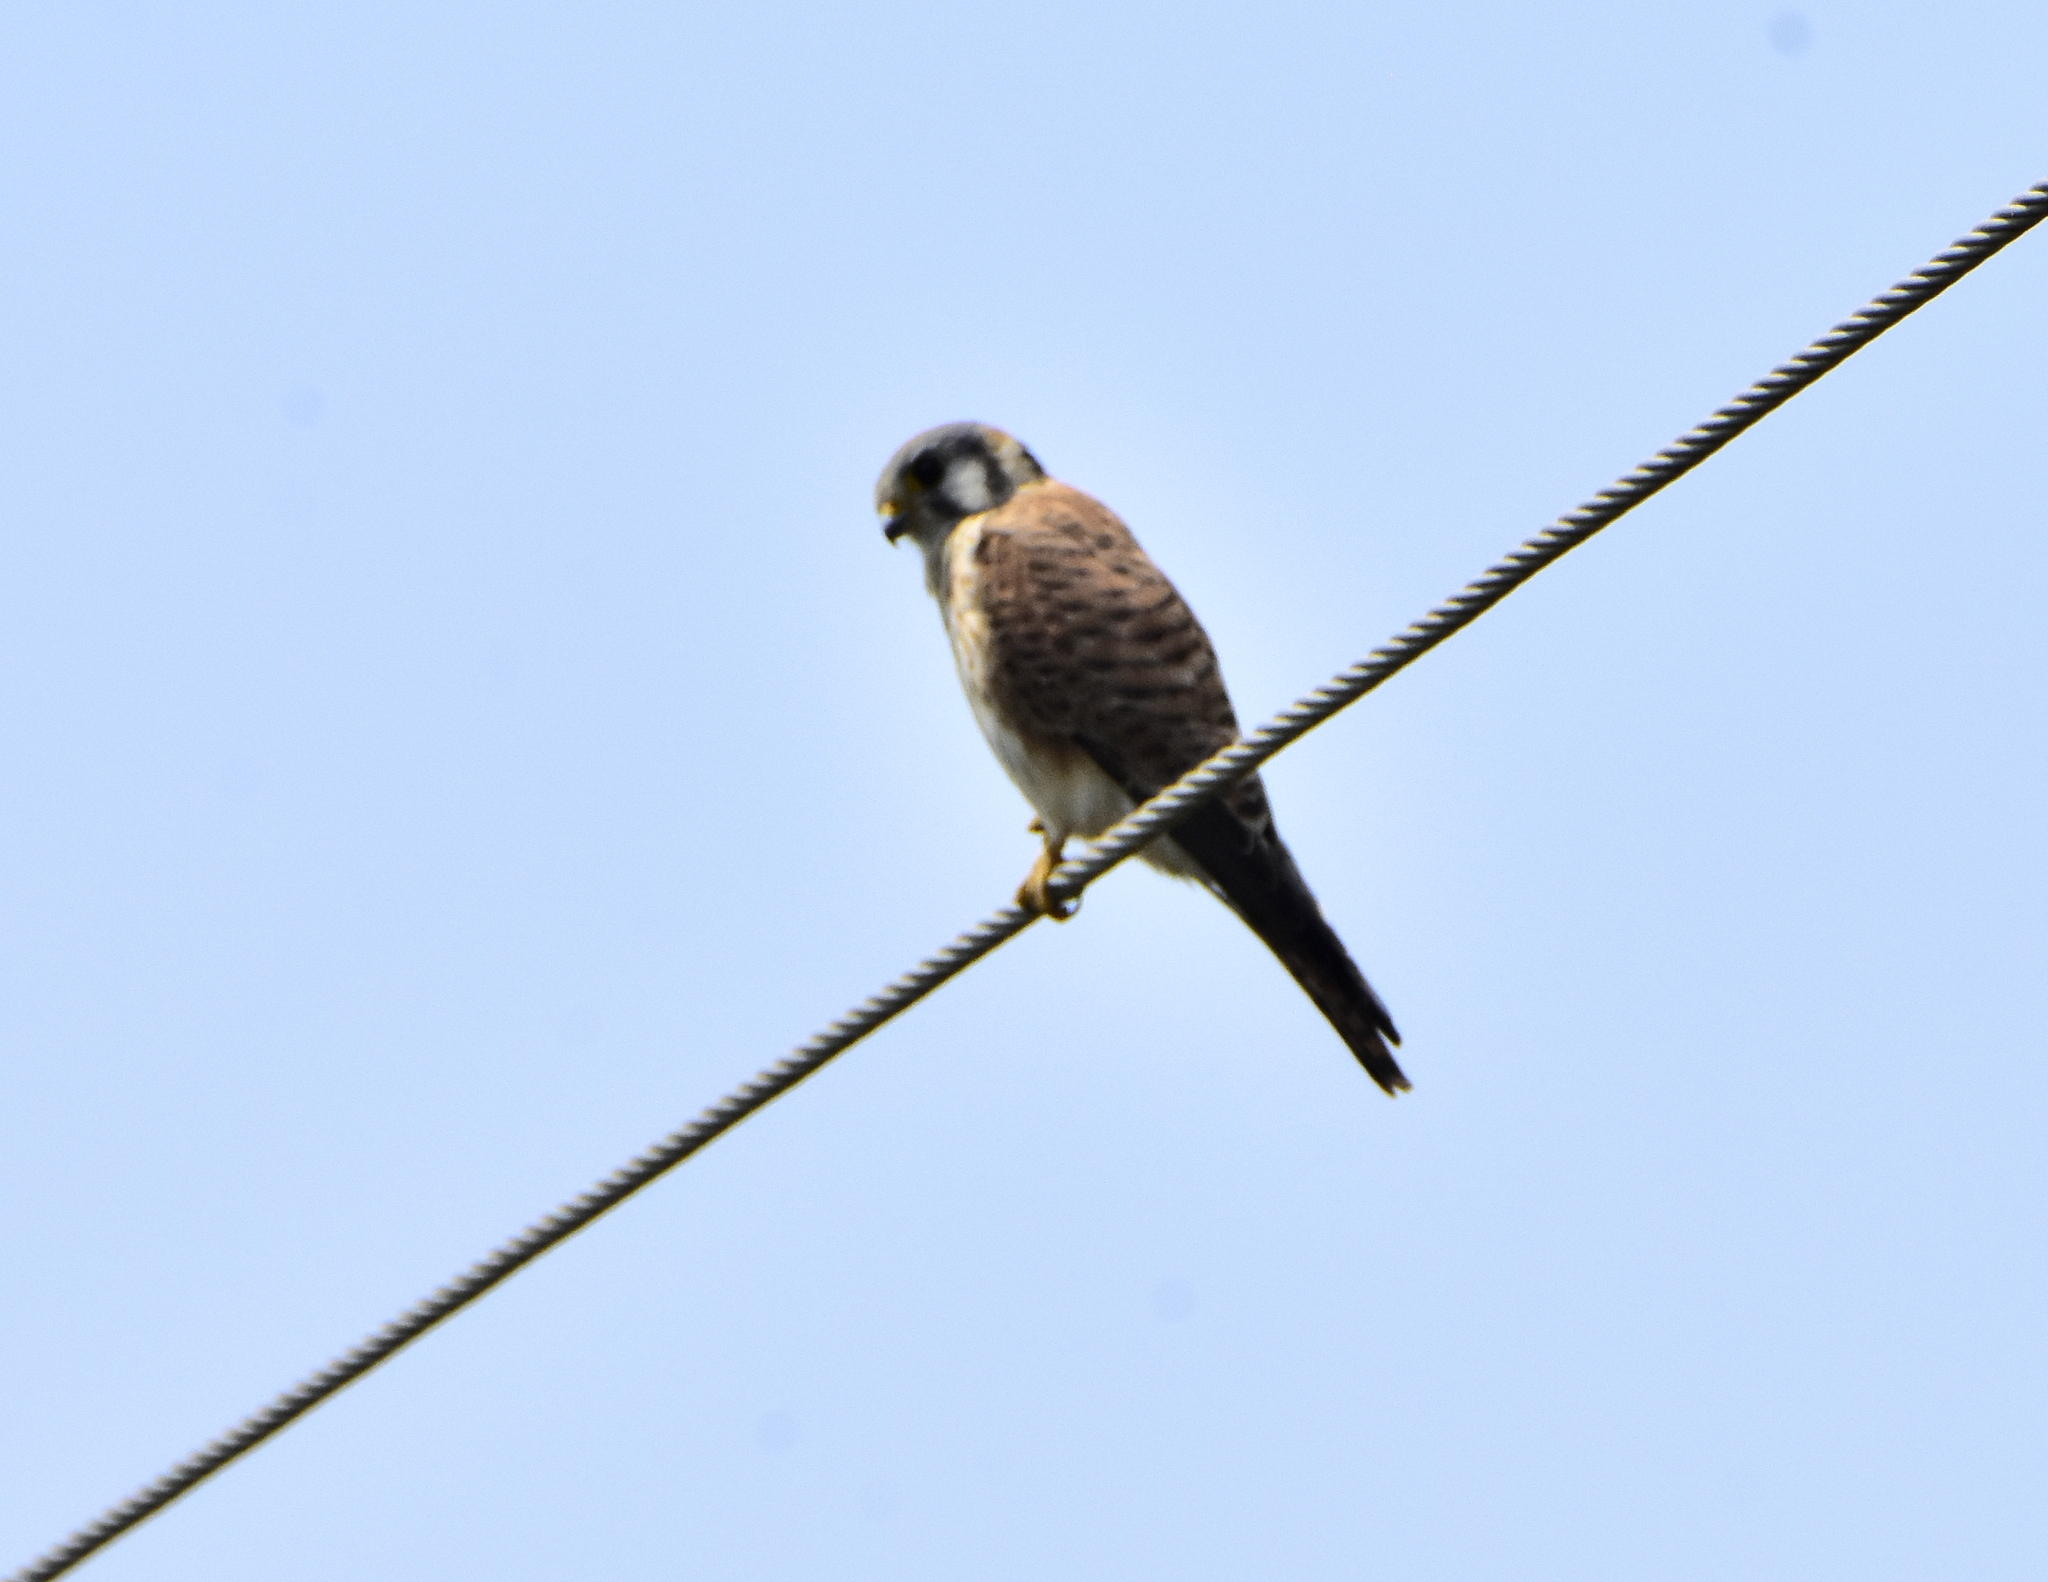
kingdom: Animalia
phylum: Chordata
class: Aves
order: Falconiformes
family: Falconidae
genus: Falco
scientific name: Falco sparverius
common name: American kestrel
